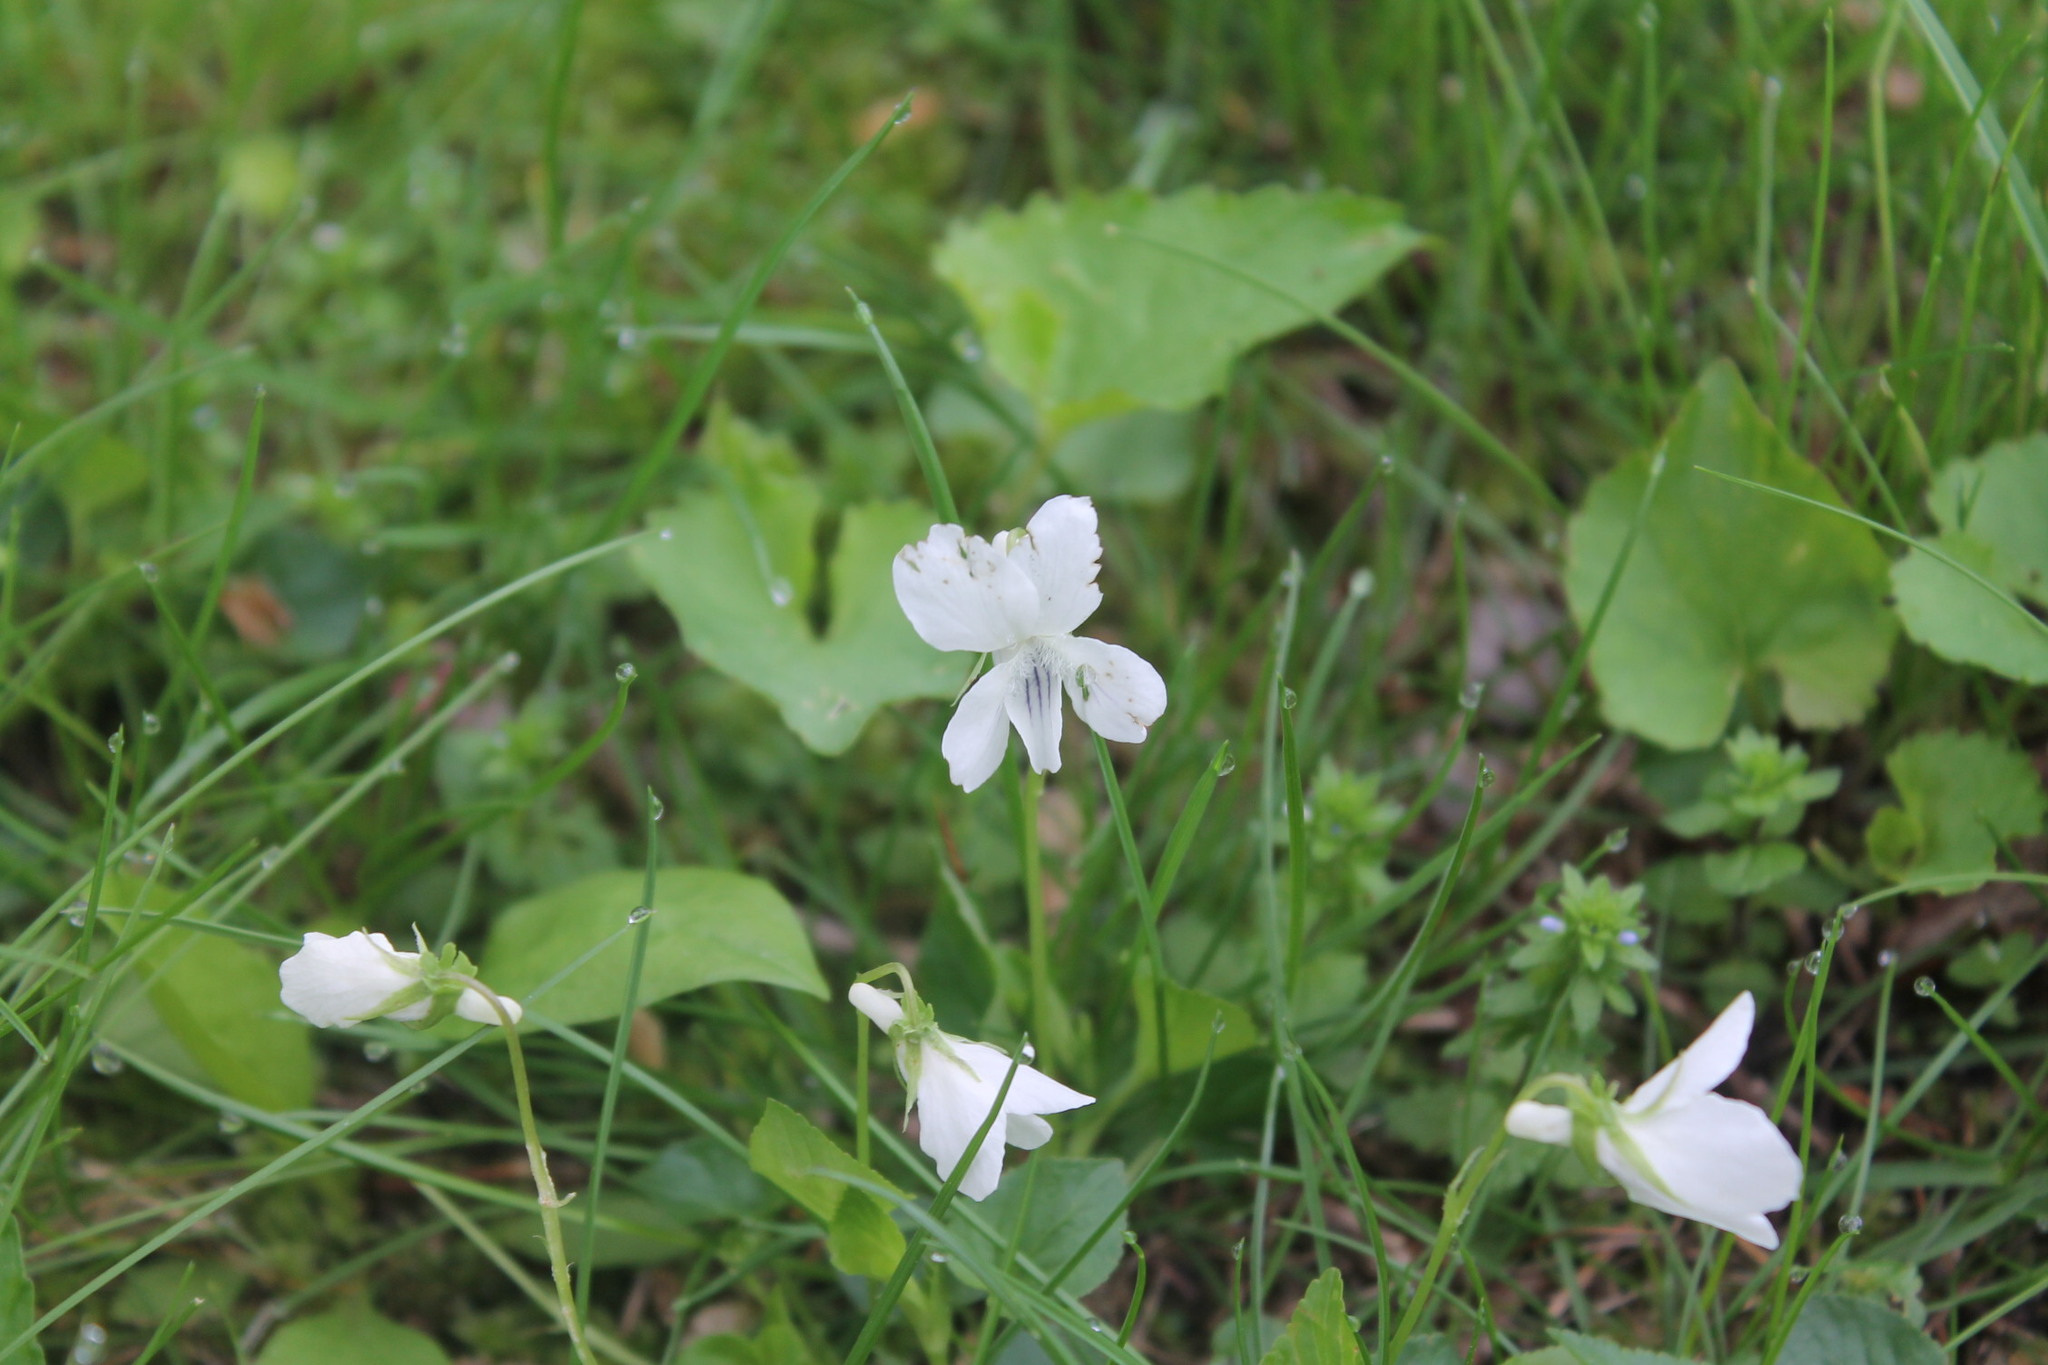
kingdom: Plantae
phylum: Tracheophyta
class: Magnoliopsida
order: Malpighiales
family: Violaceae
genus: Viola
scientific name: Viola striata
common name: Cream violet
